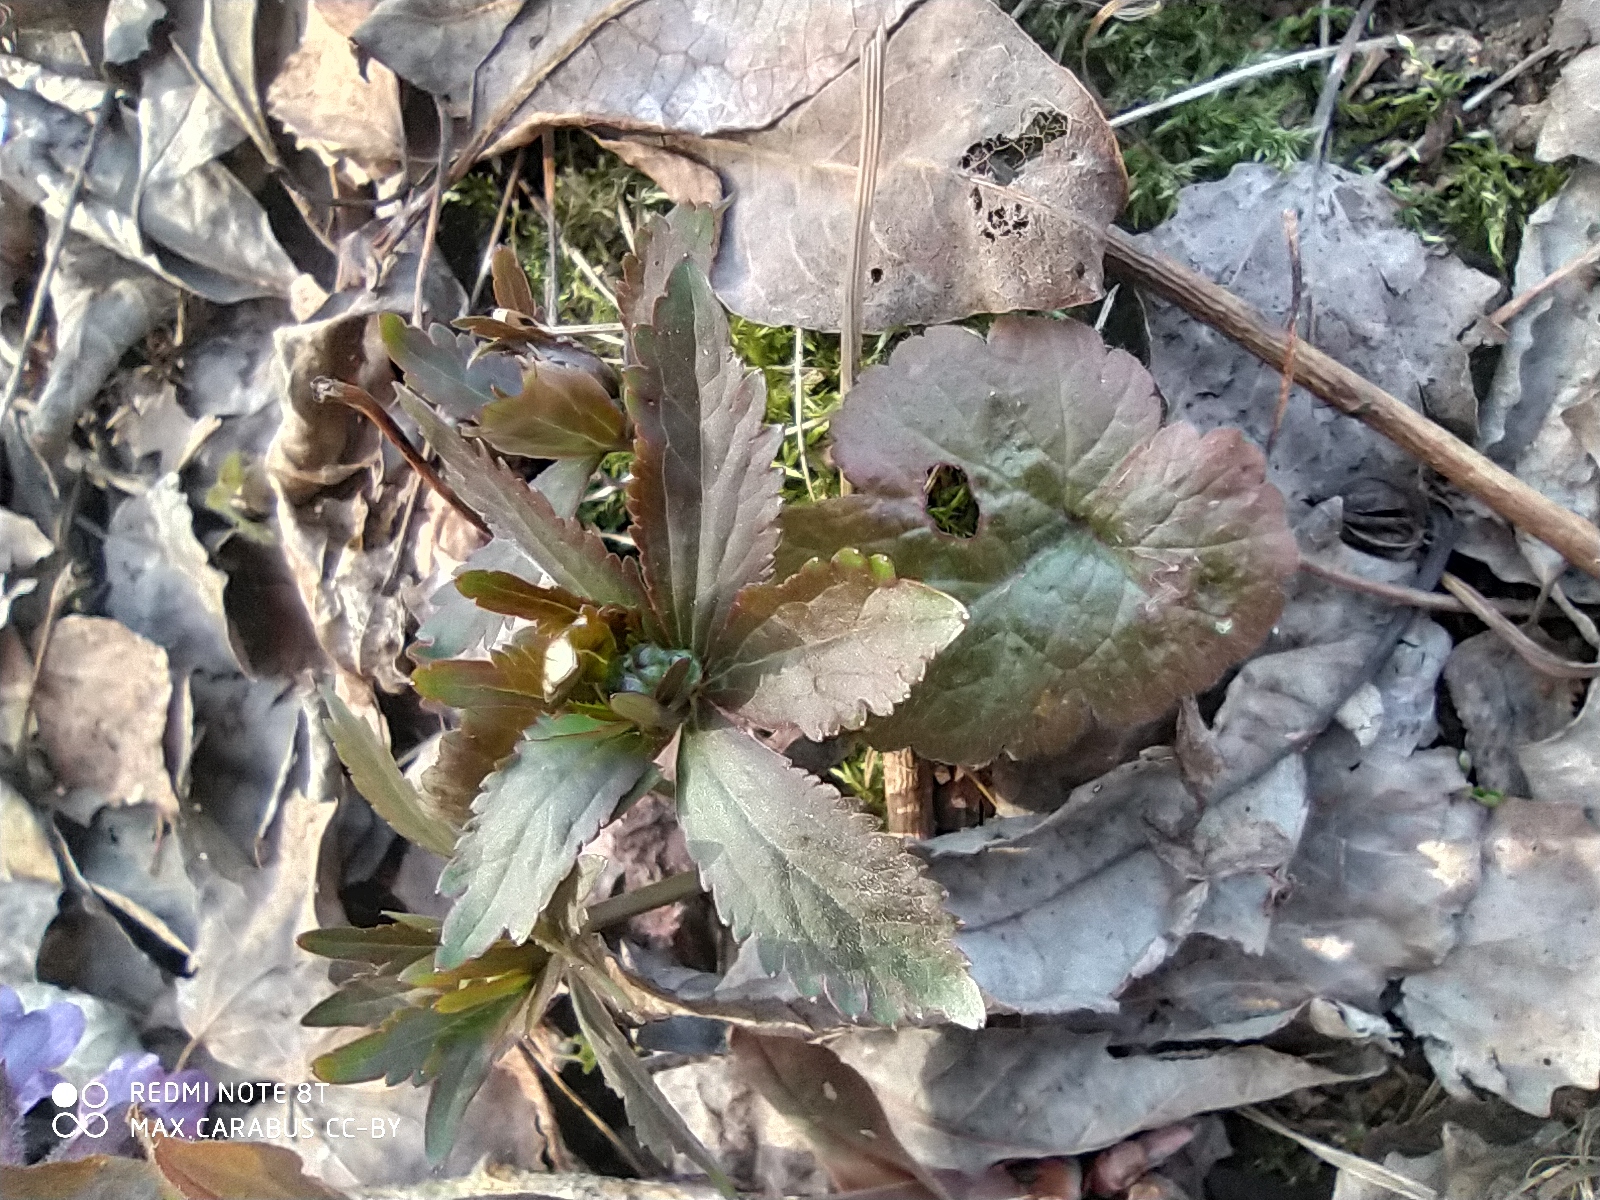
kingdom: Plantae
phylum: Tracheophyta
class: Magnoliopsida
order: Ranunculales
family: Ranunculaceae
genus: Ranunculus
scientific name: Ranunculus cassubicus
